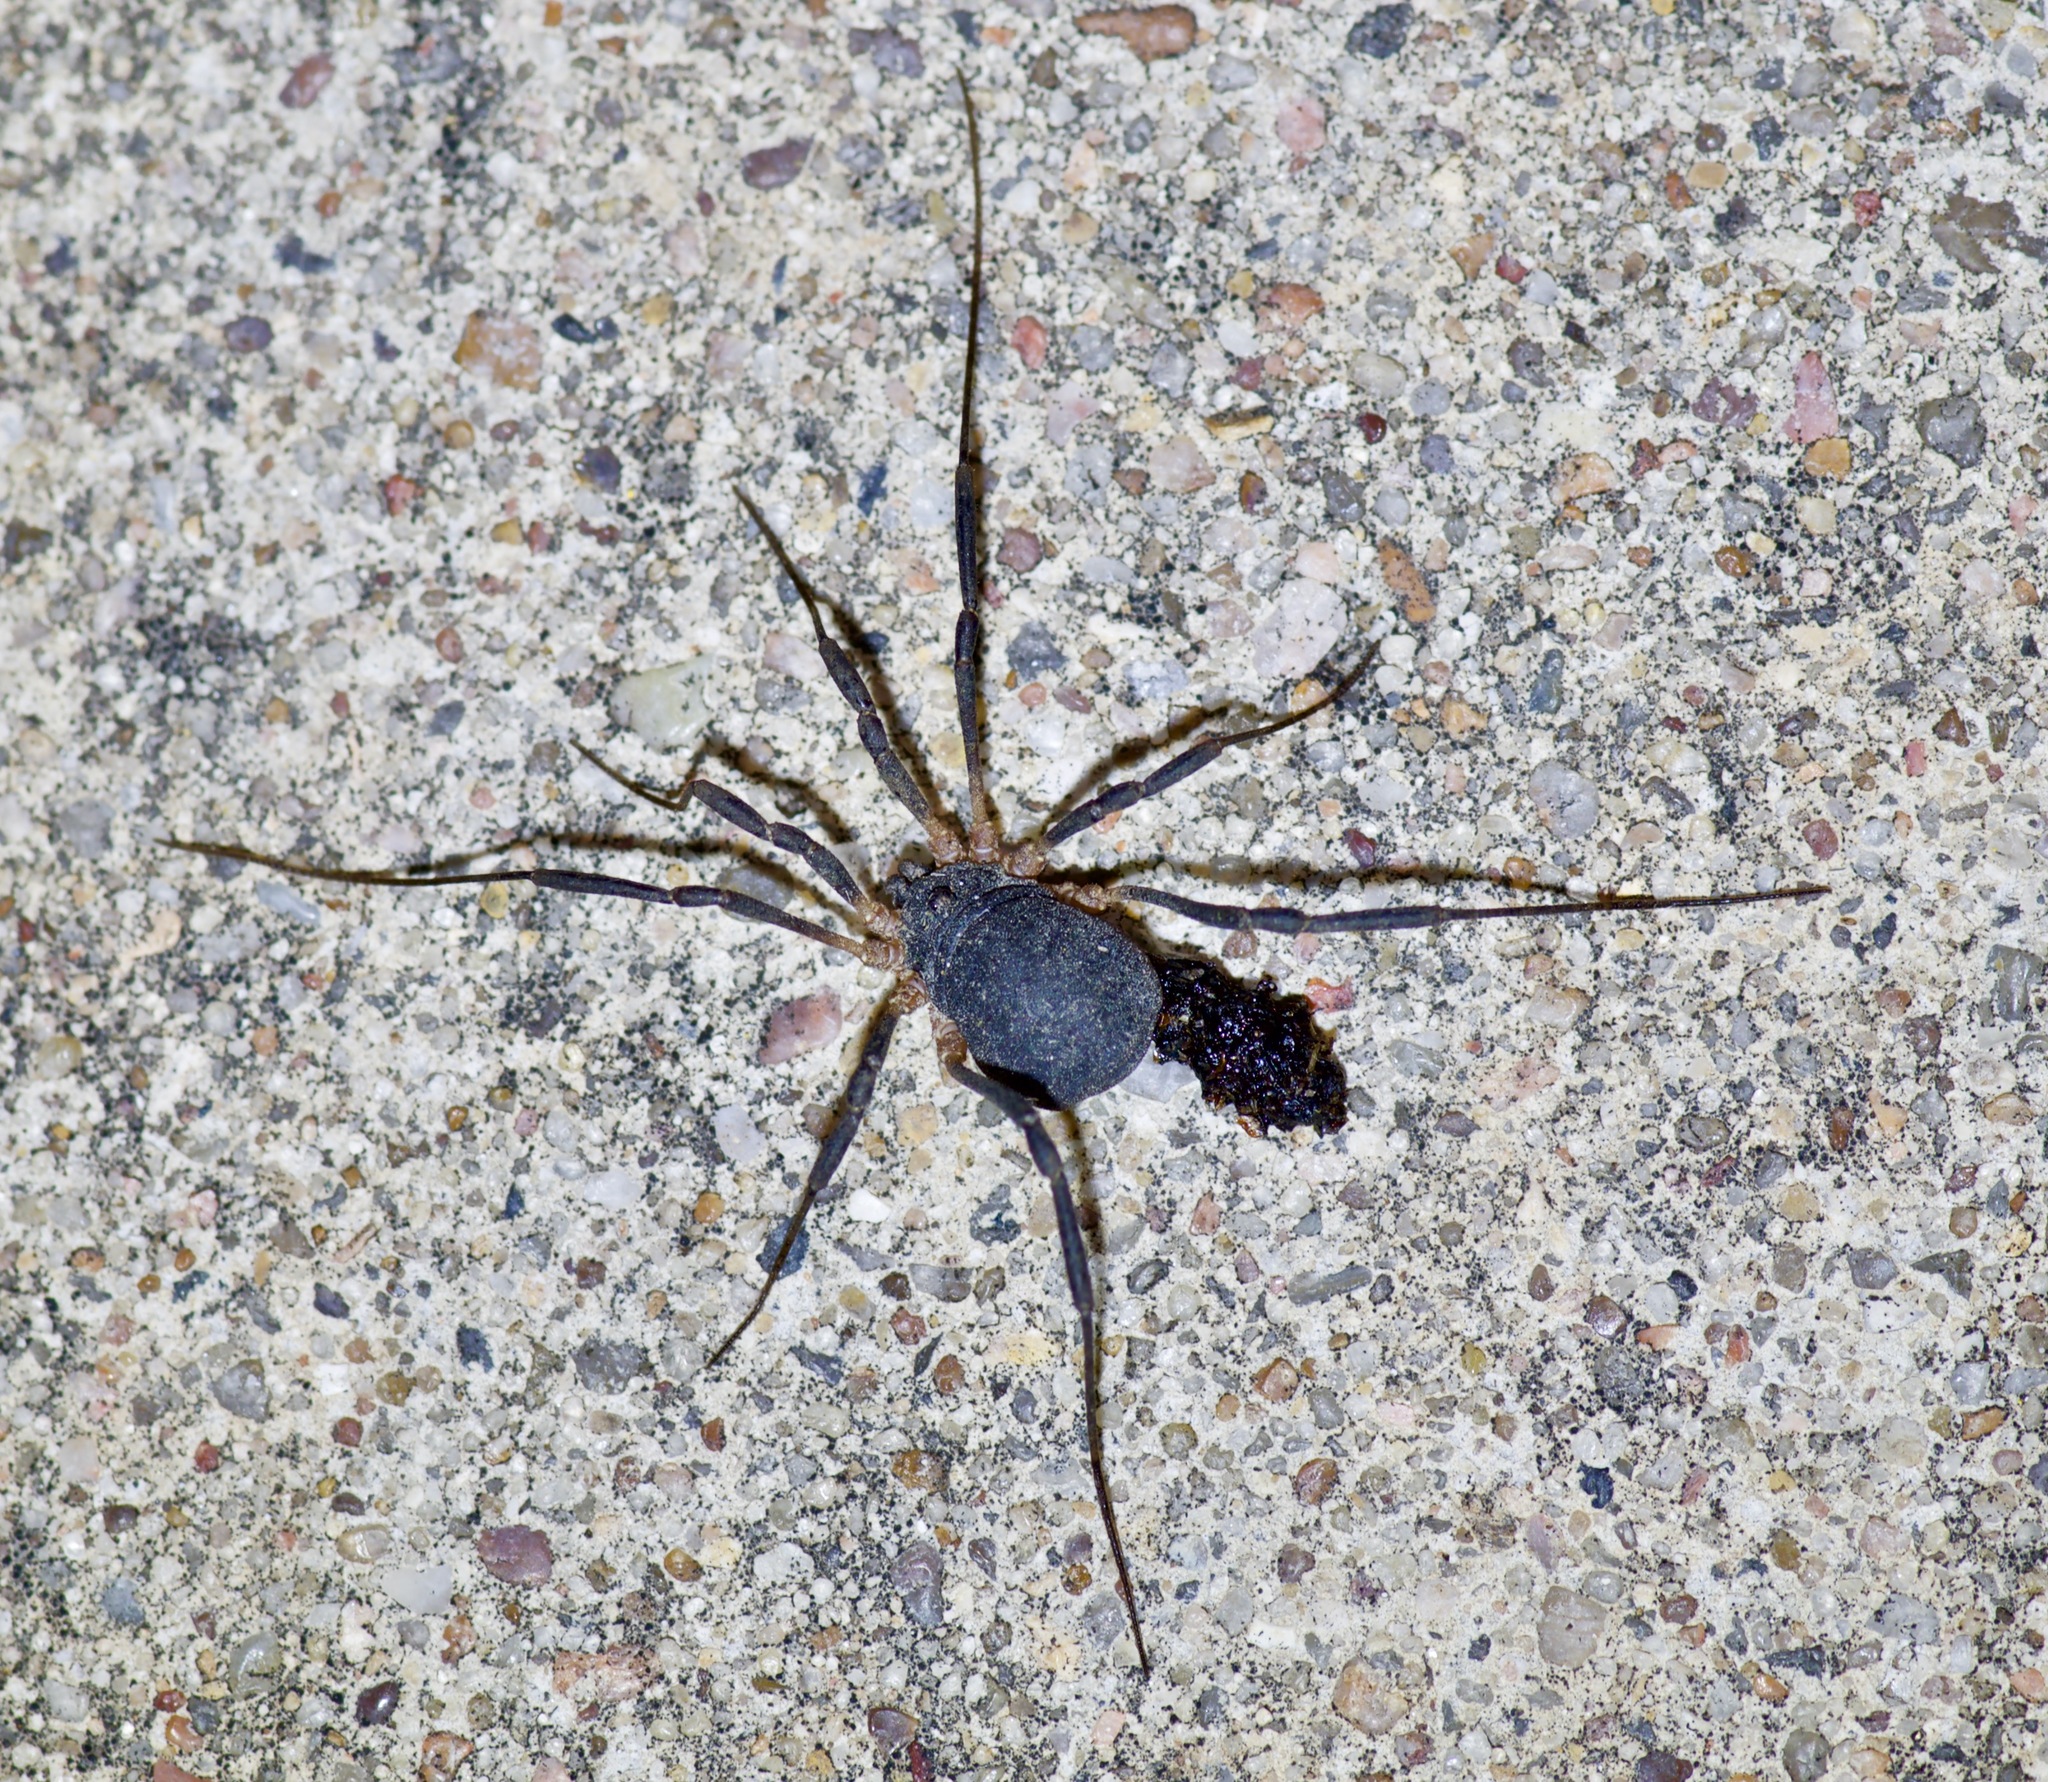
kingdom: Animalia
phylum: Arthropoda
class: Arachnida
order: Opiliones
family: Sclerosomatidae
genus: Eumesosoma
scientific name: Eumesosoma roeweri
